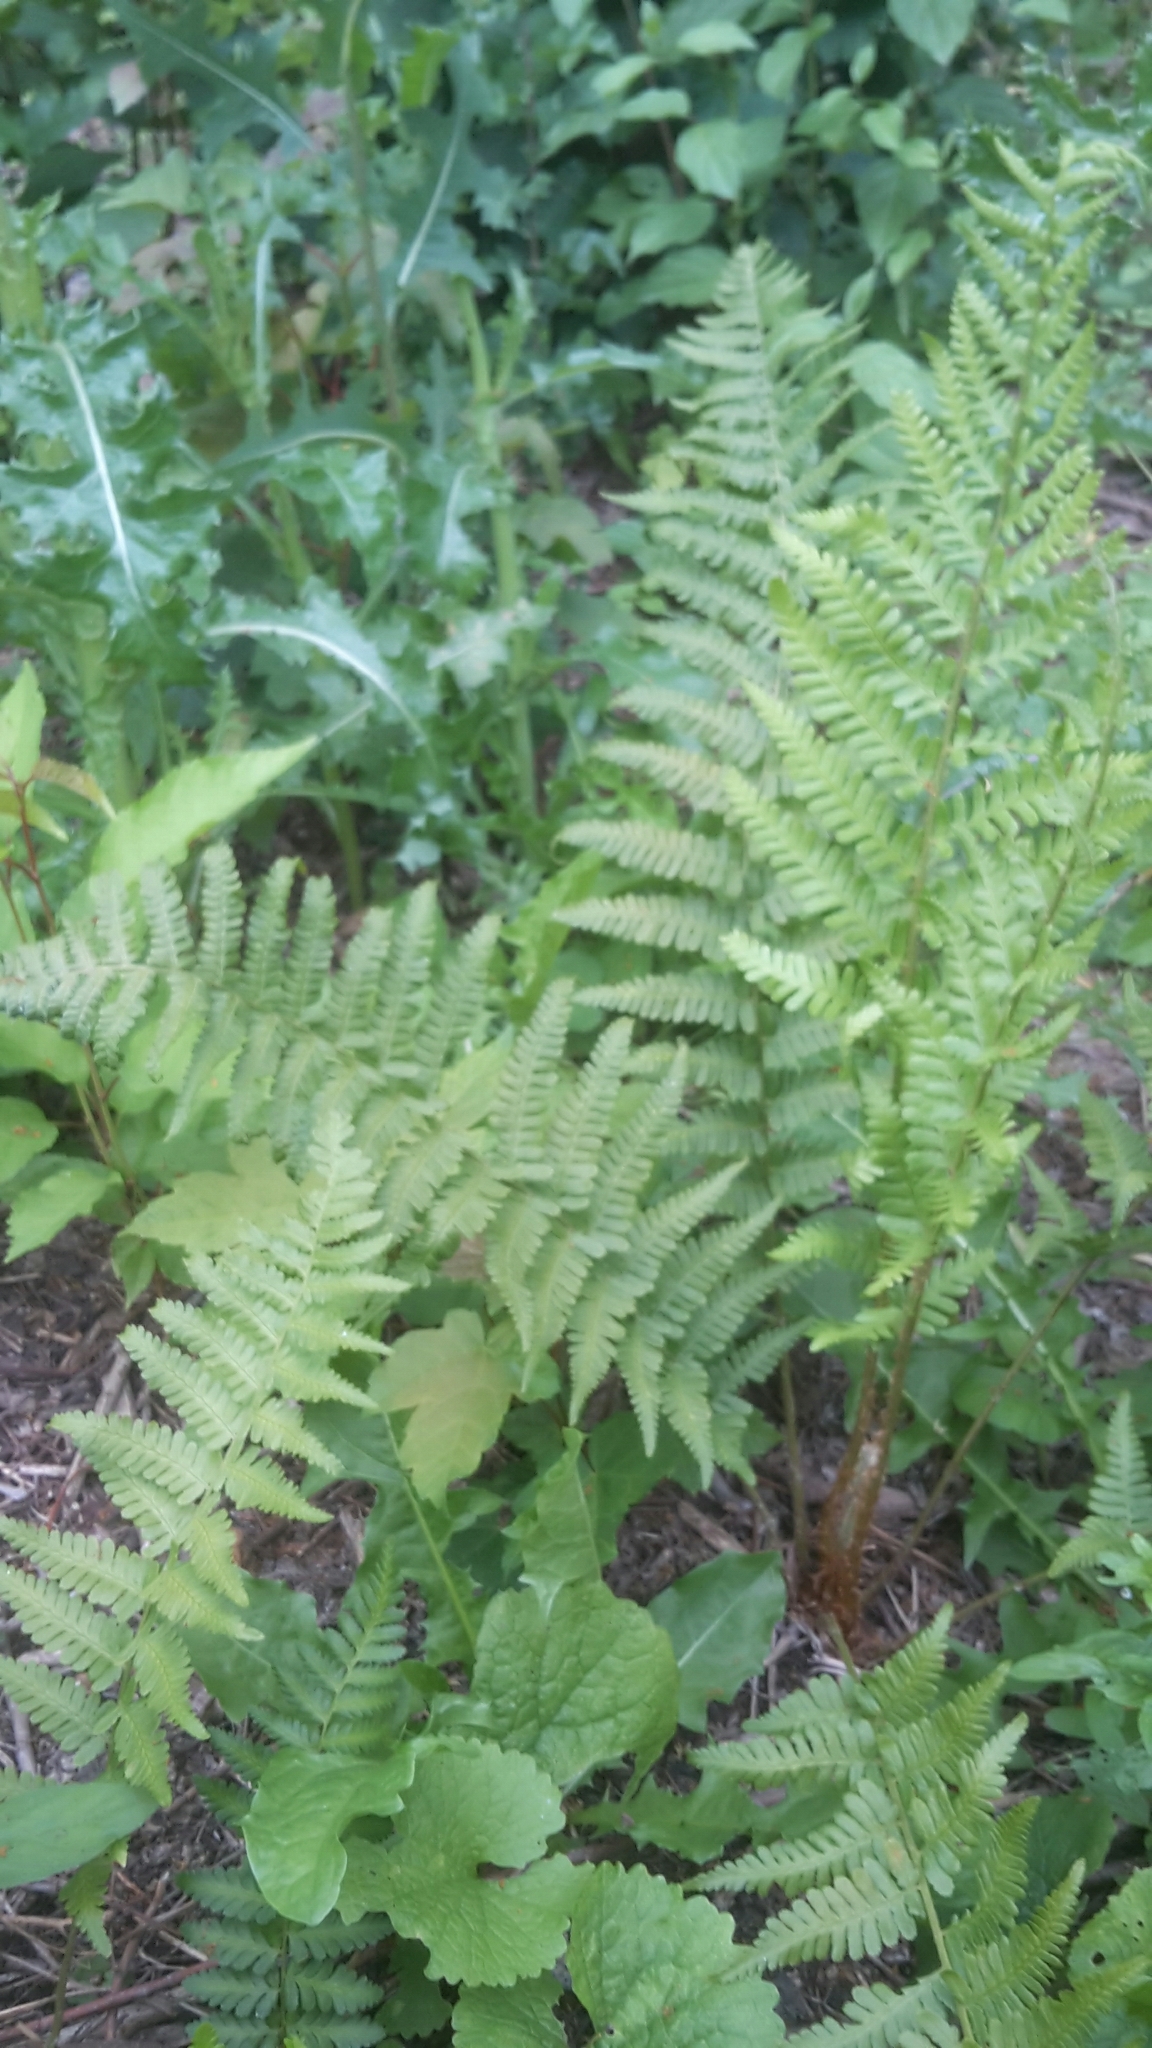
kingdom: Plantae
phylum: Tracheophyta
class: Polypodiopsida
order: Polypodiales
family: Dryopteridaceae
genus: Dryopteris
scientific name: Dryopteris filix-mas
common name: Male fern
